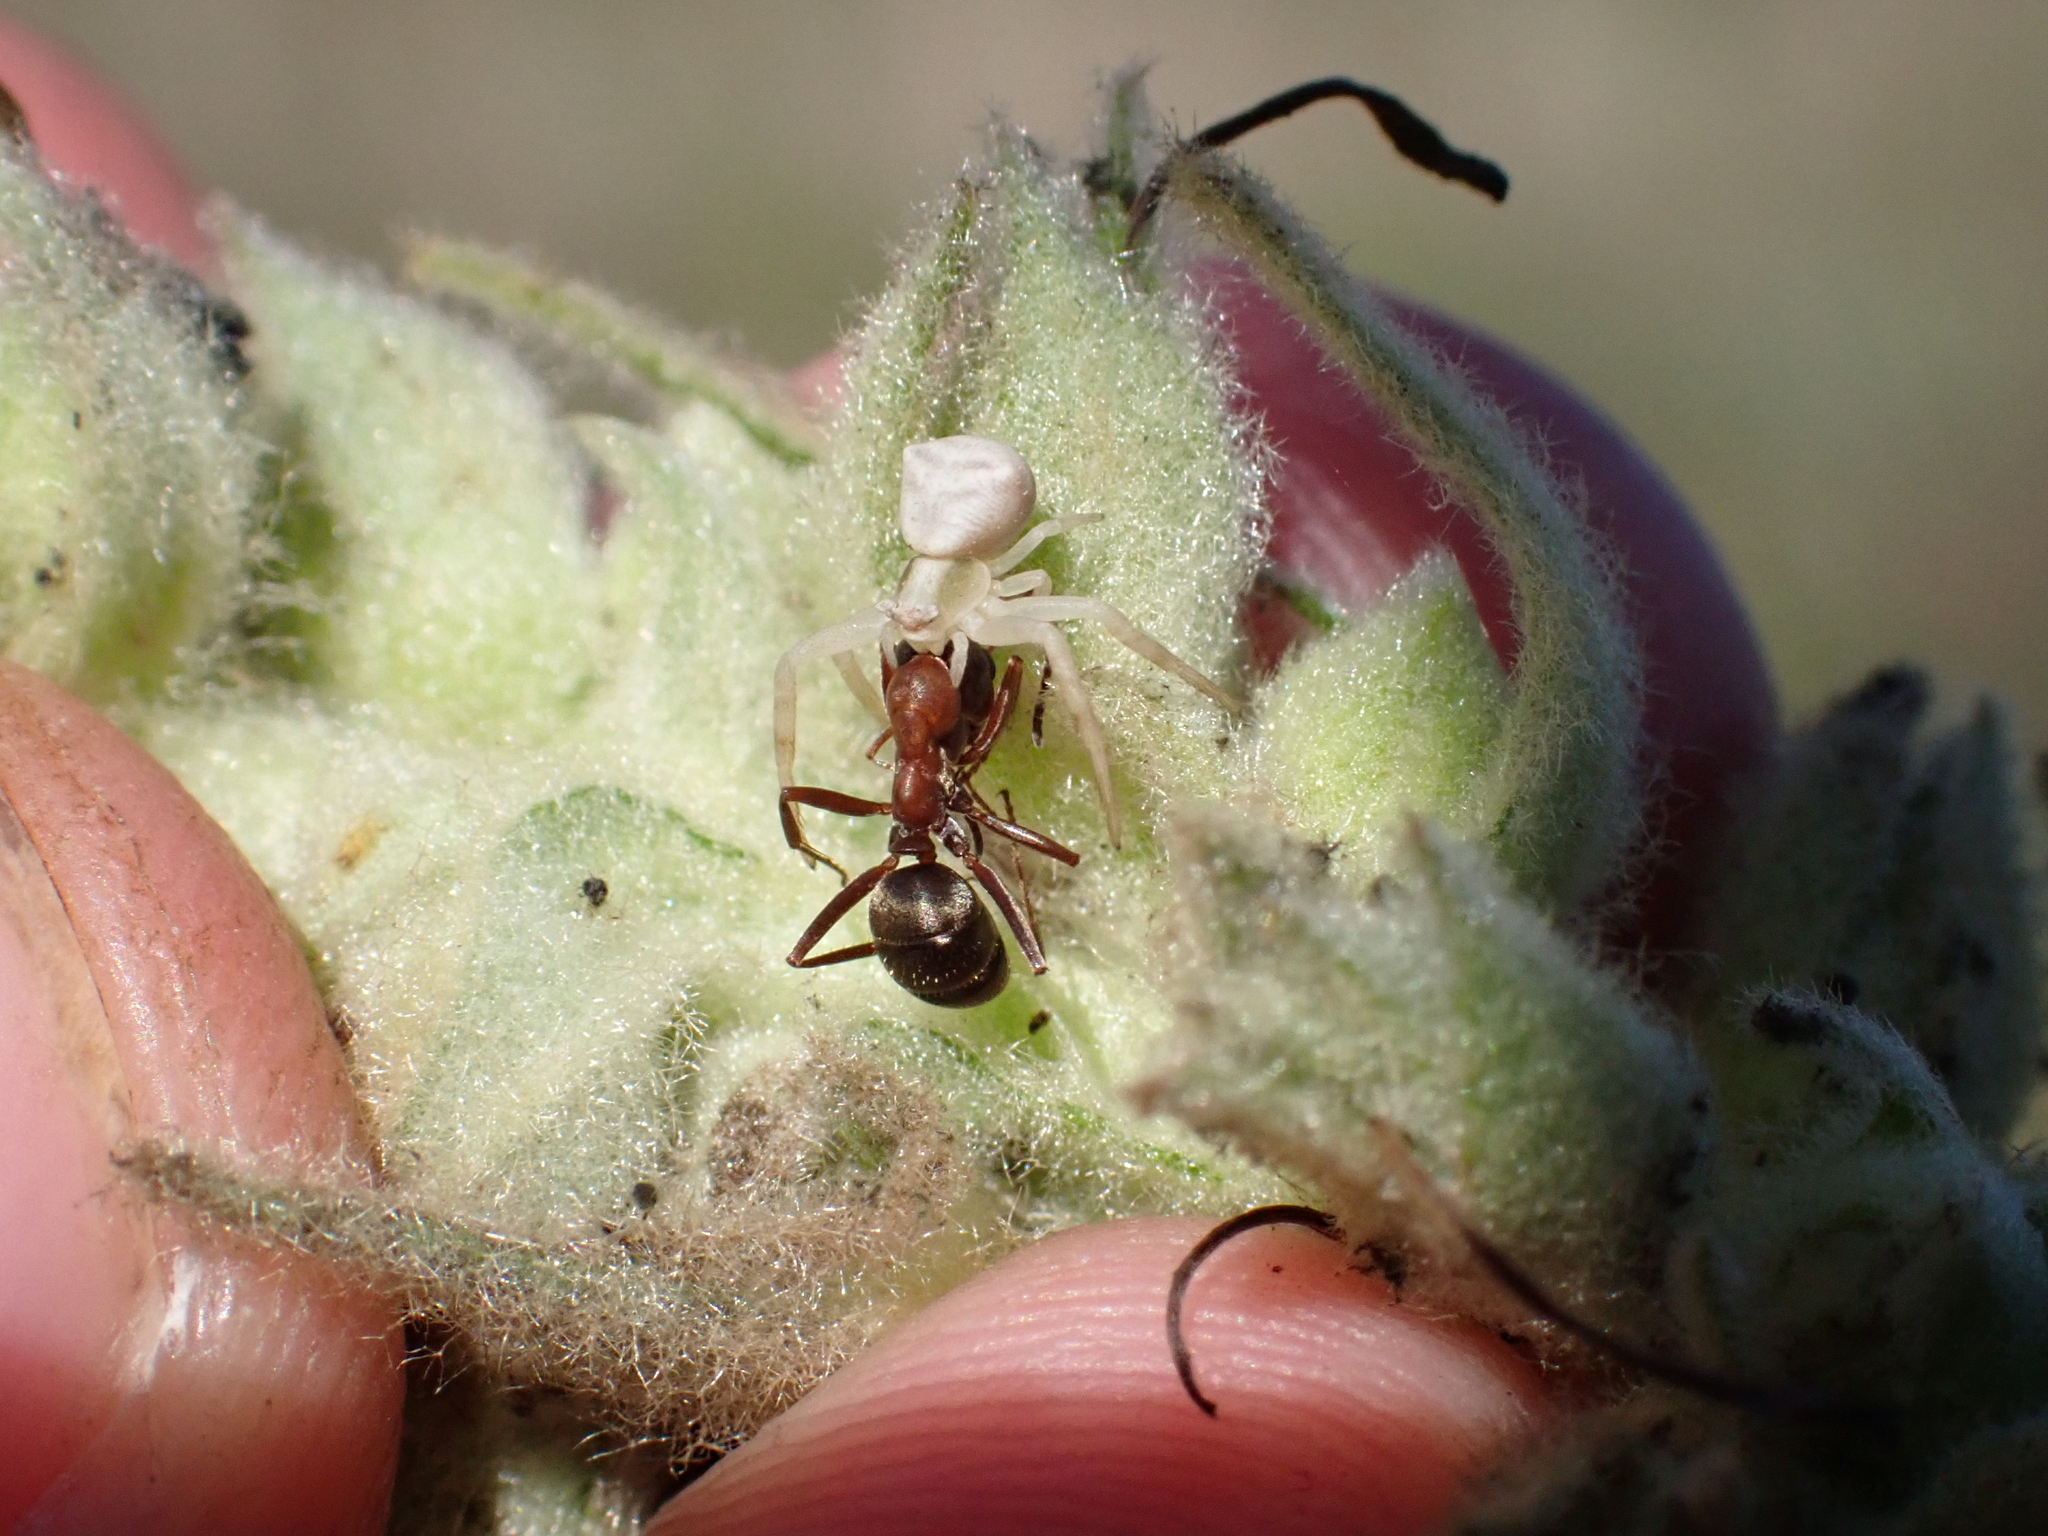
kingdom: Animalia
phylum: Arthropoda
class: Arachnida
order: Araneae
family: Thomisidae
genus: Thomisus
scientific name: Thomisus onustus
